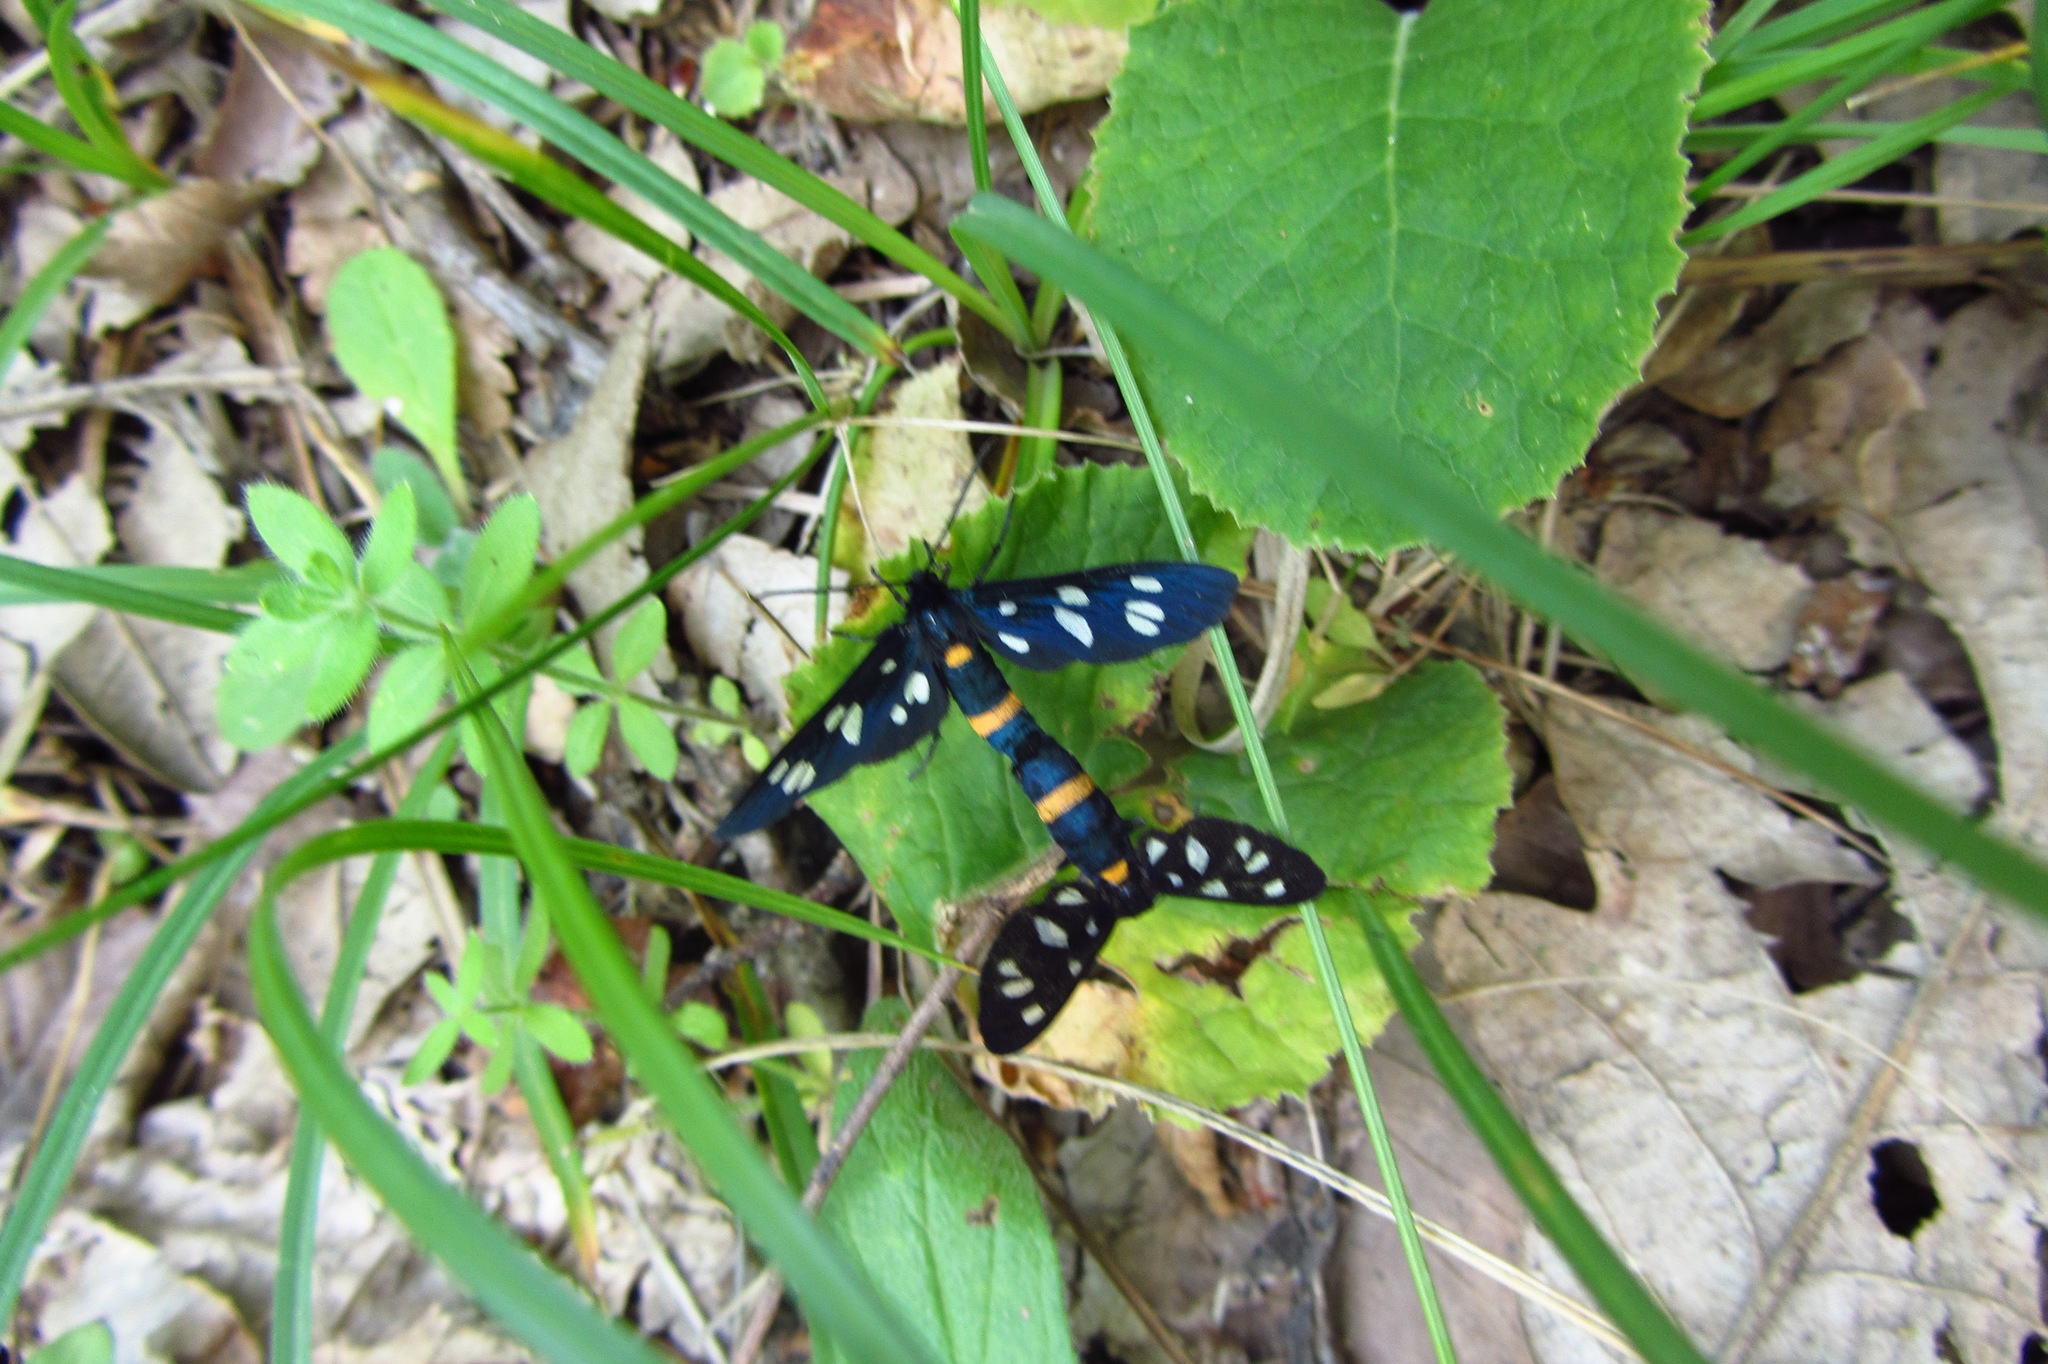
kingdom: Animalia
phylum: Arthropoda
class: Insecta
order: Lepidoptera
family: Erebidae
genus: Amata
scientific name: Amata nigricornis
